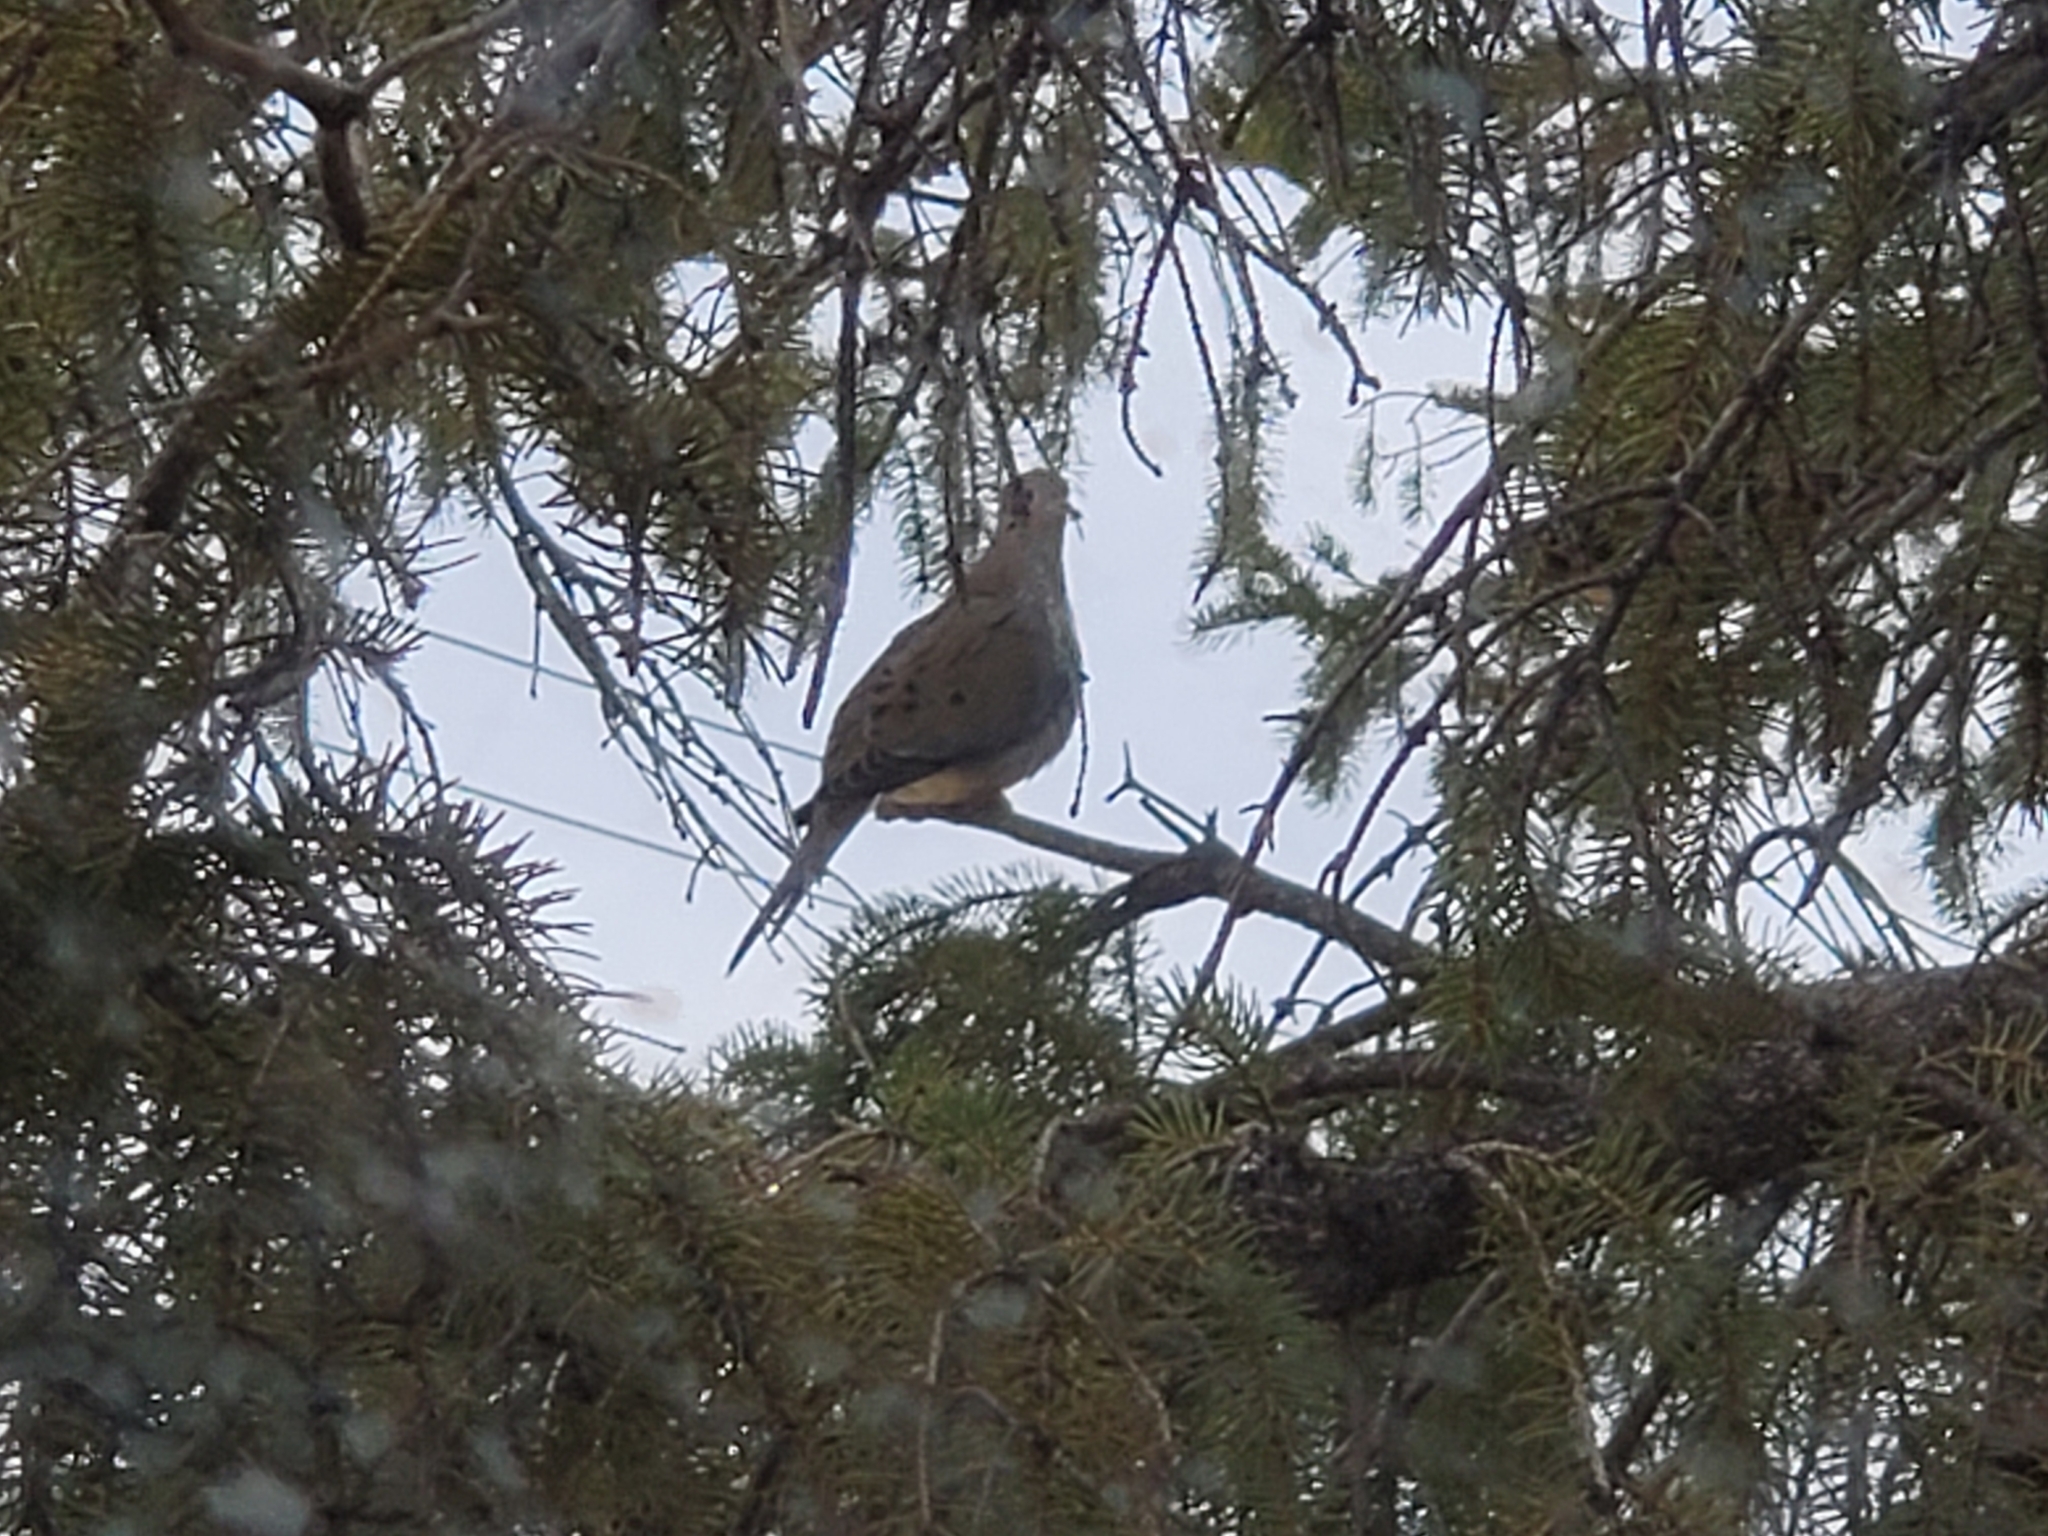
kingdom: Animalia
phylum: Chordata
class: Aves
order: Columbiformes
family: Columbidae
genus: Zenaida
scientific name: Zenaida macroura
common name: Mourning dove
